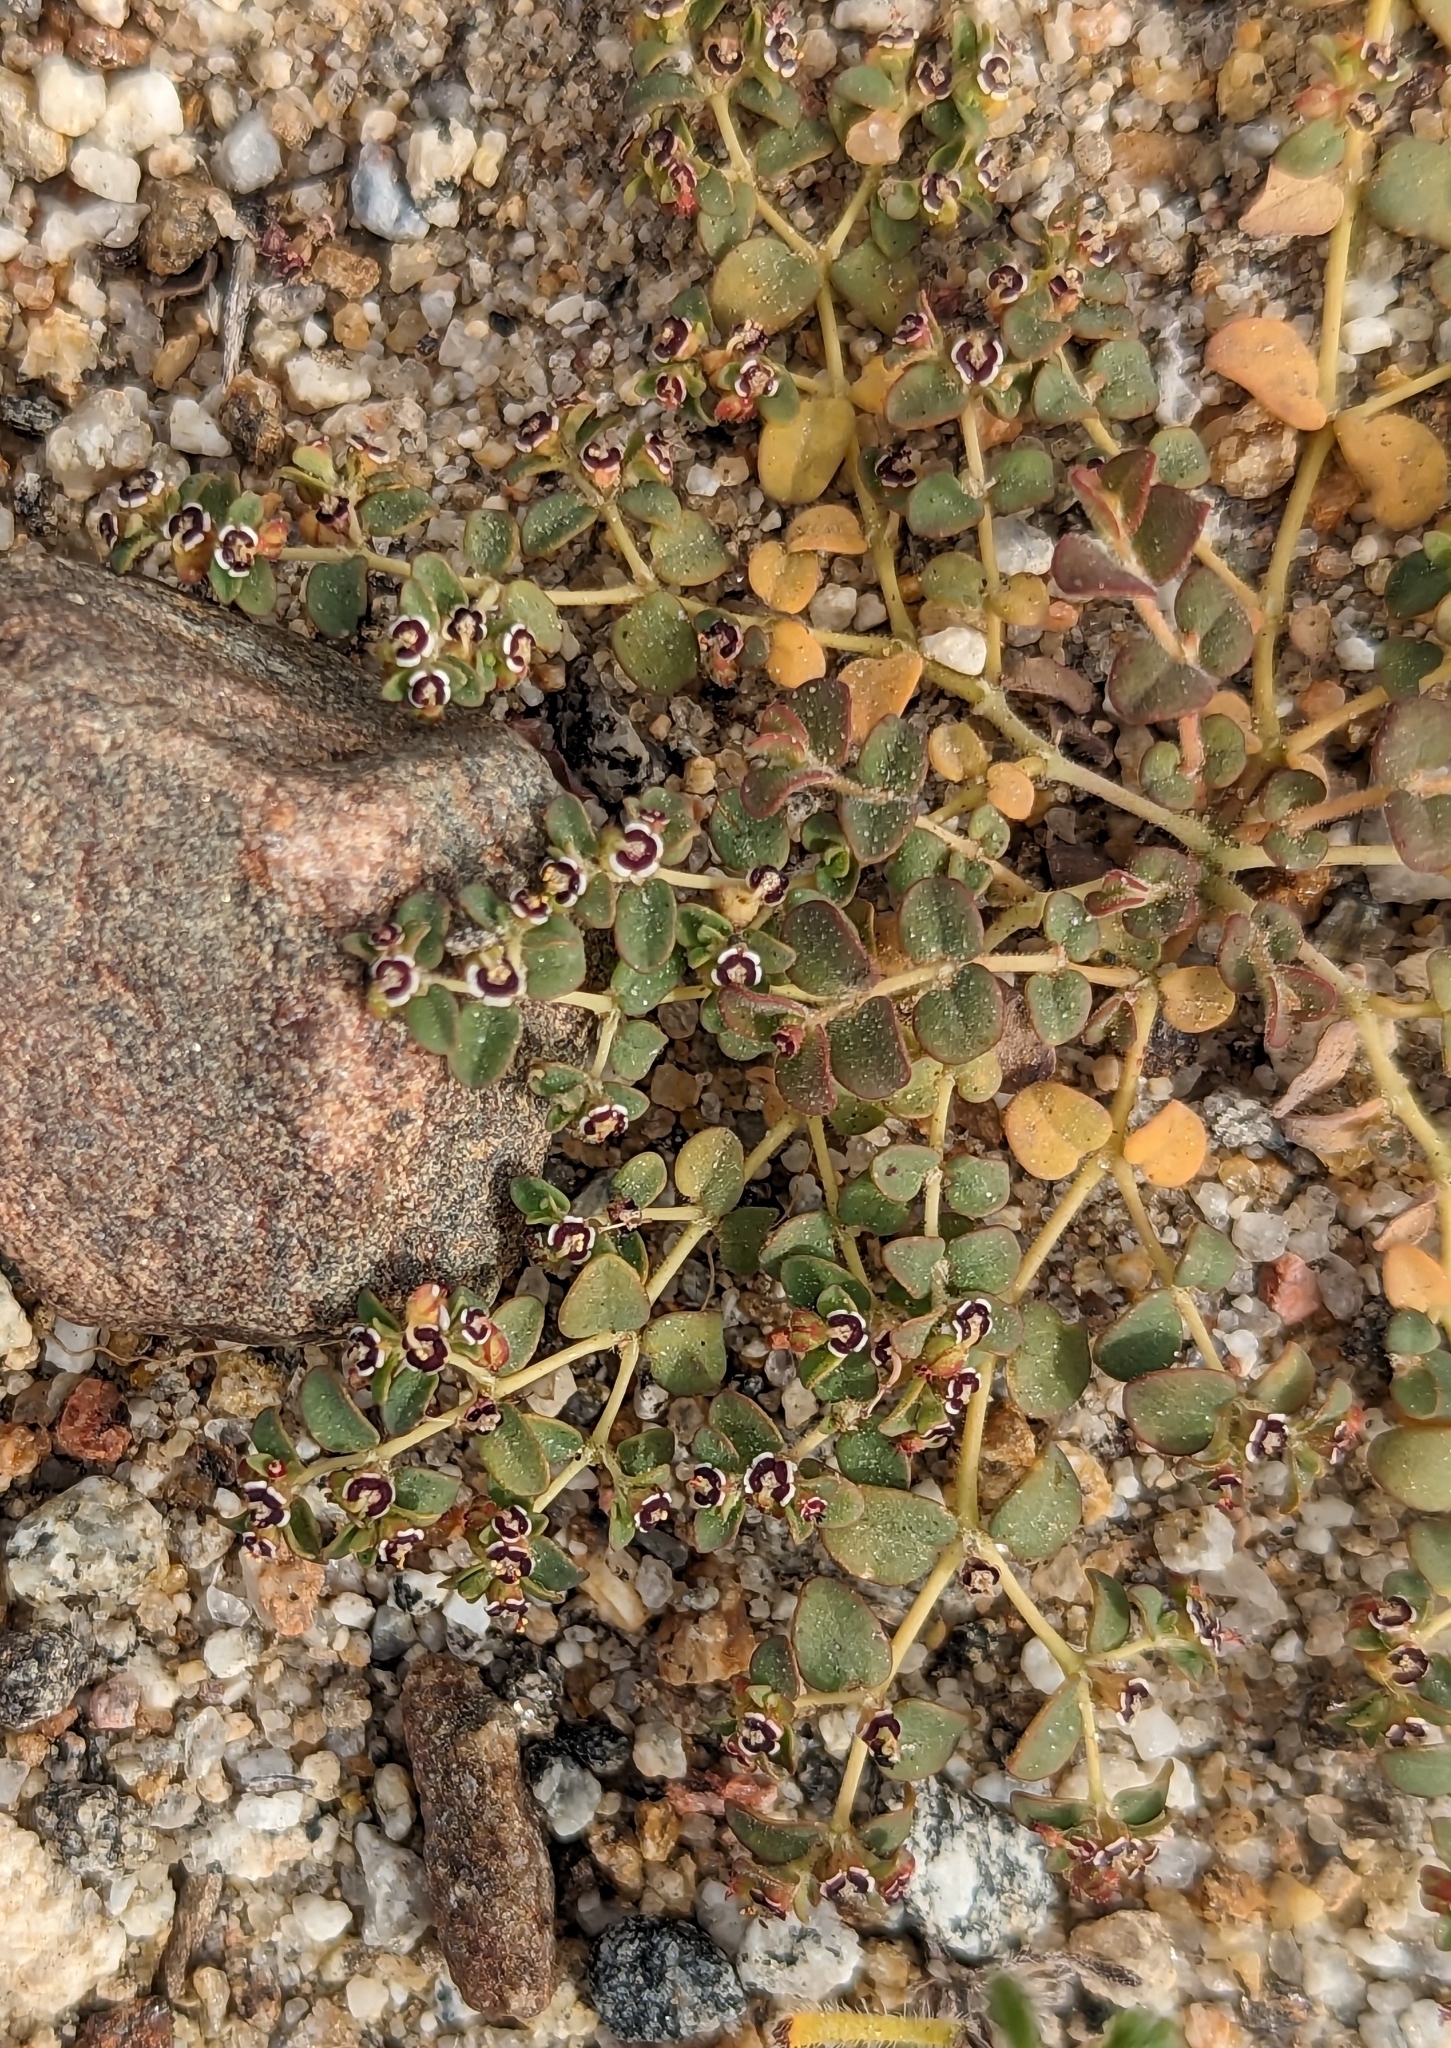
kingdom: Plantae
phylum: Tracheophyta
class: Magnoliopsida
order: Malpighiales
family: Euphorbiaceae
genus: Euphorbia
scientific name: Euphorbia polycarpa
